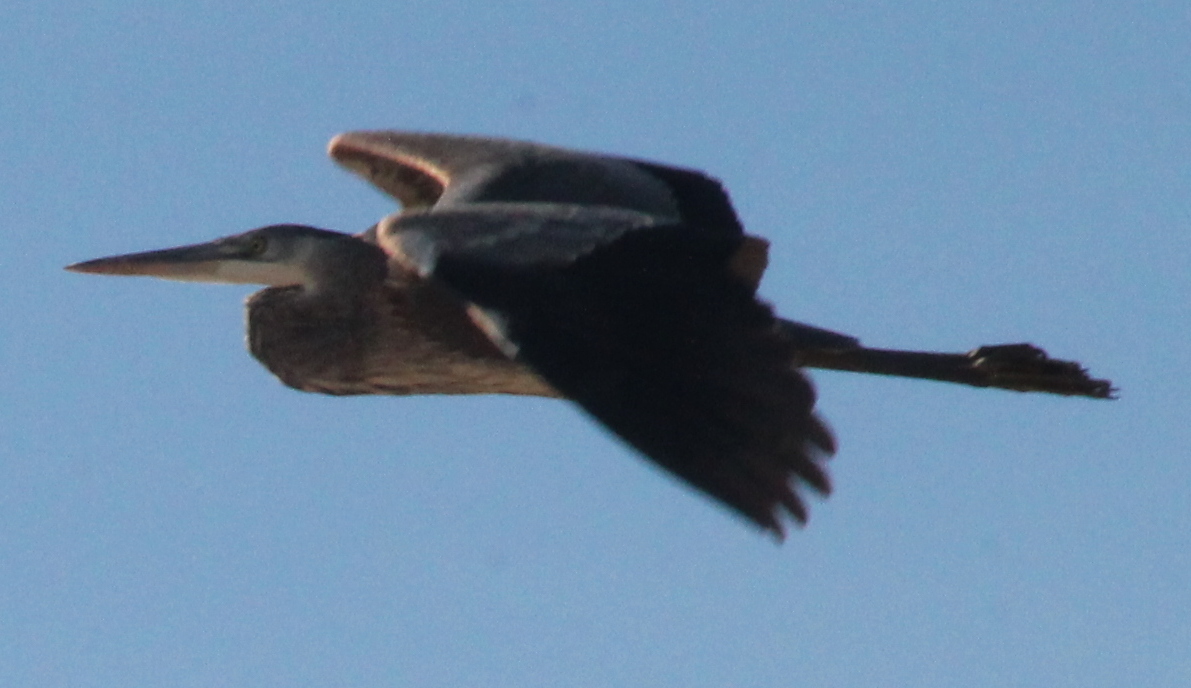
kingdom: Animalia
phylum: Chordata
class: Aves
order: Pelecaniformes
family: Ardeidae
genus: Ardea
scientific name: Ardea herodias
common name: Great blue heron
